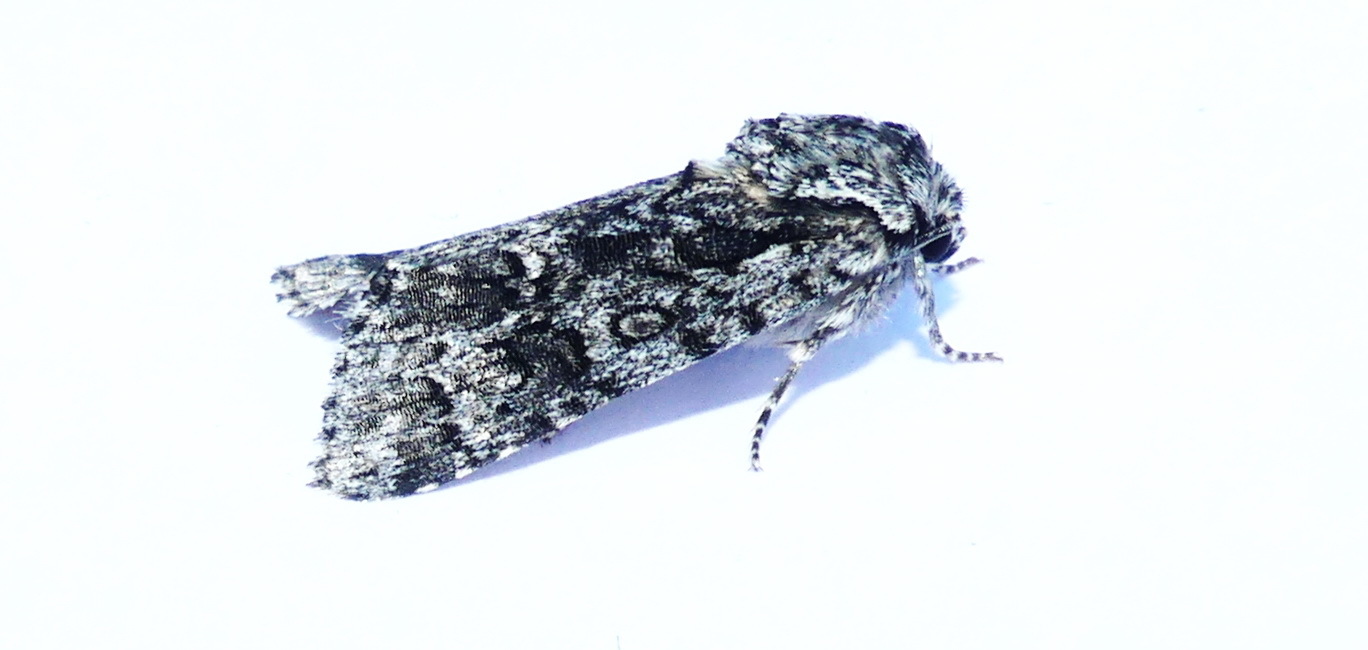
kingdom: Animalia
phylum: Arthropoda
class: Insecta
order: Lepidoptera
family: Noctuidae
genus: Acronicta
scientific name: Acronicta impressa
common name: Impressed dagger
